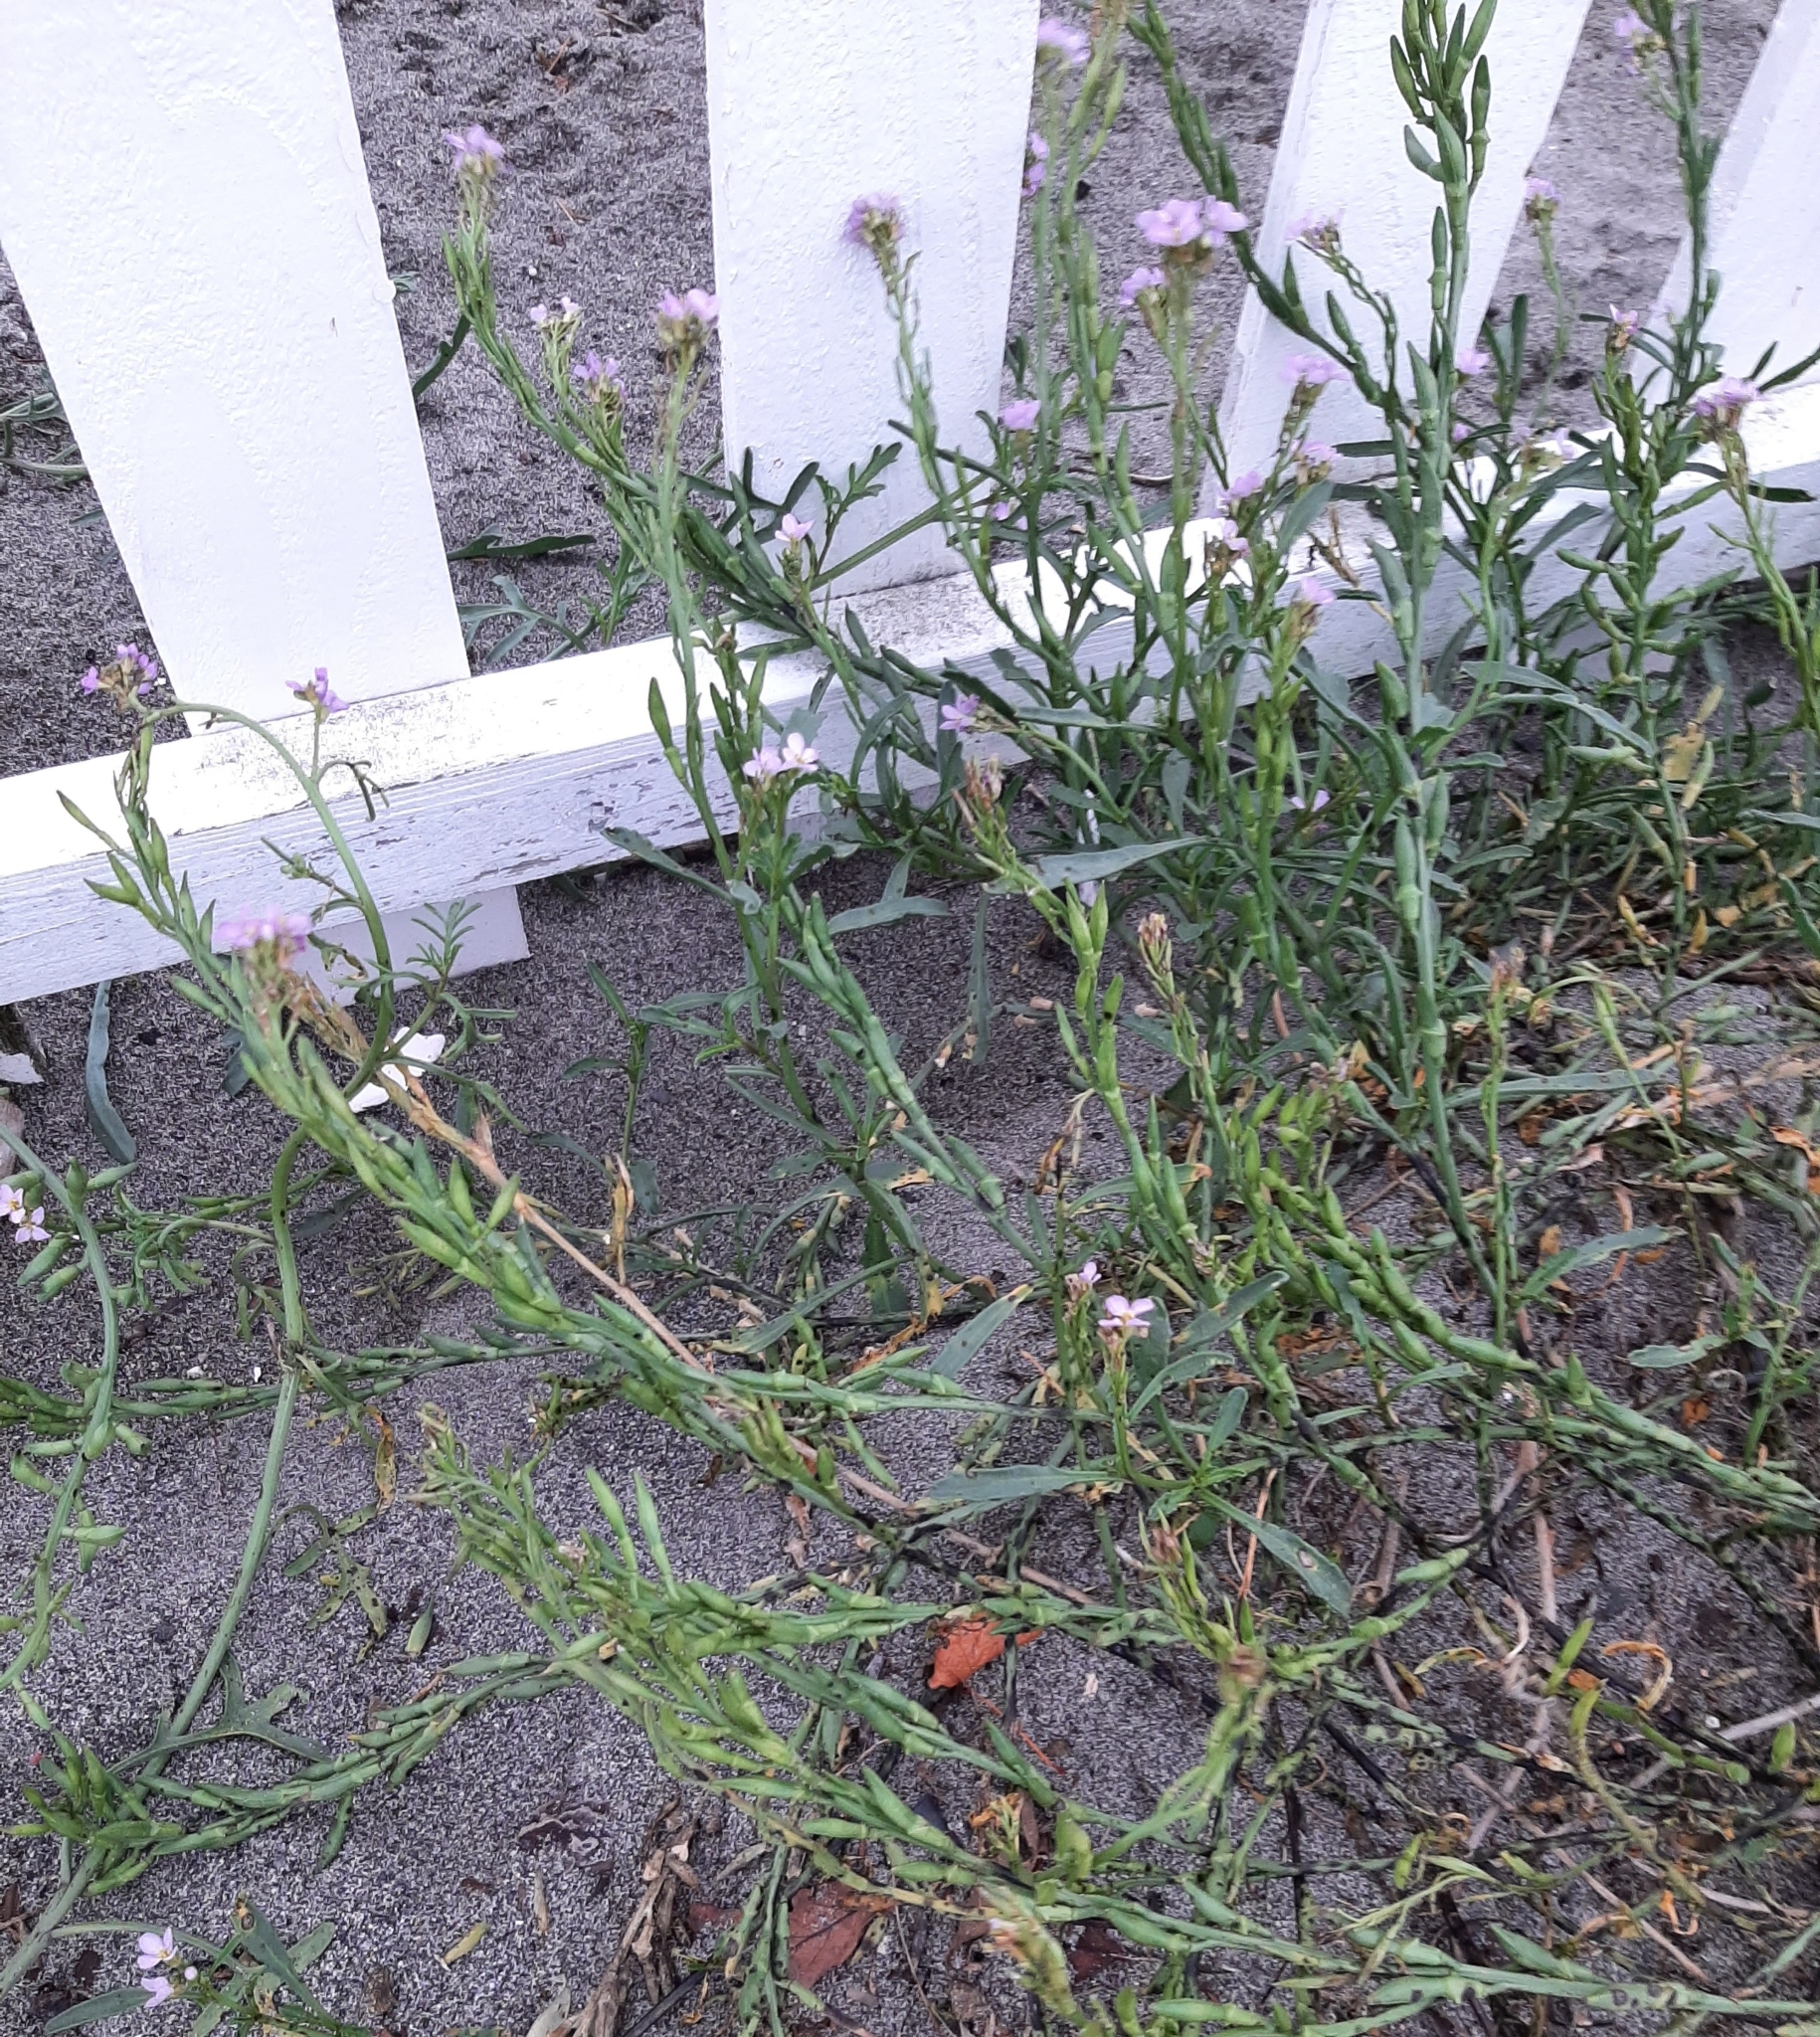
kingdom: Plantae
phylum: Tracheophyta
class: Magnoliopsida
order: Brassicales
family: Brassicaceae
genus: Cakile
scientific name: Cakile maritima
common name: Sea rocket
